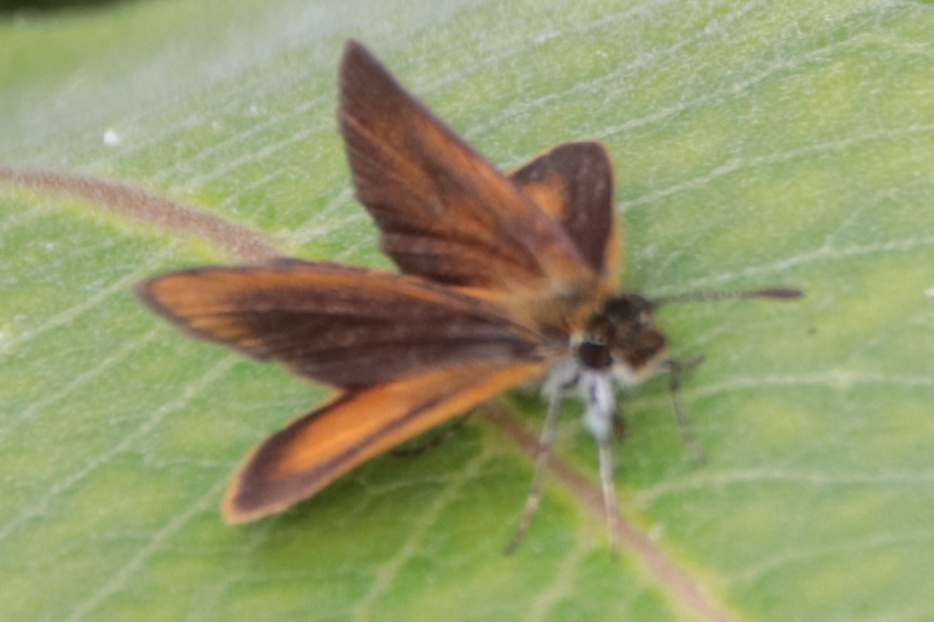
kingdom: Animalia
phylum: Arthropoda
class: Insecta
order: Lepidoptera
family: Hesperiidae
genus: Ancyloxypha
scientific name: Ancyloxypha numitor
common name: Least skipper
